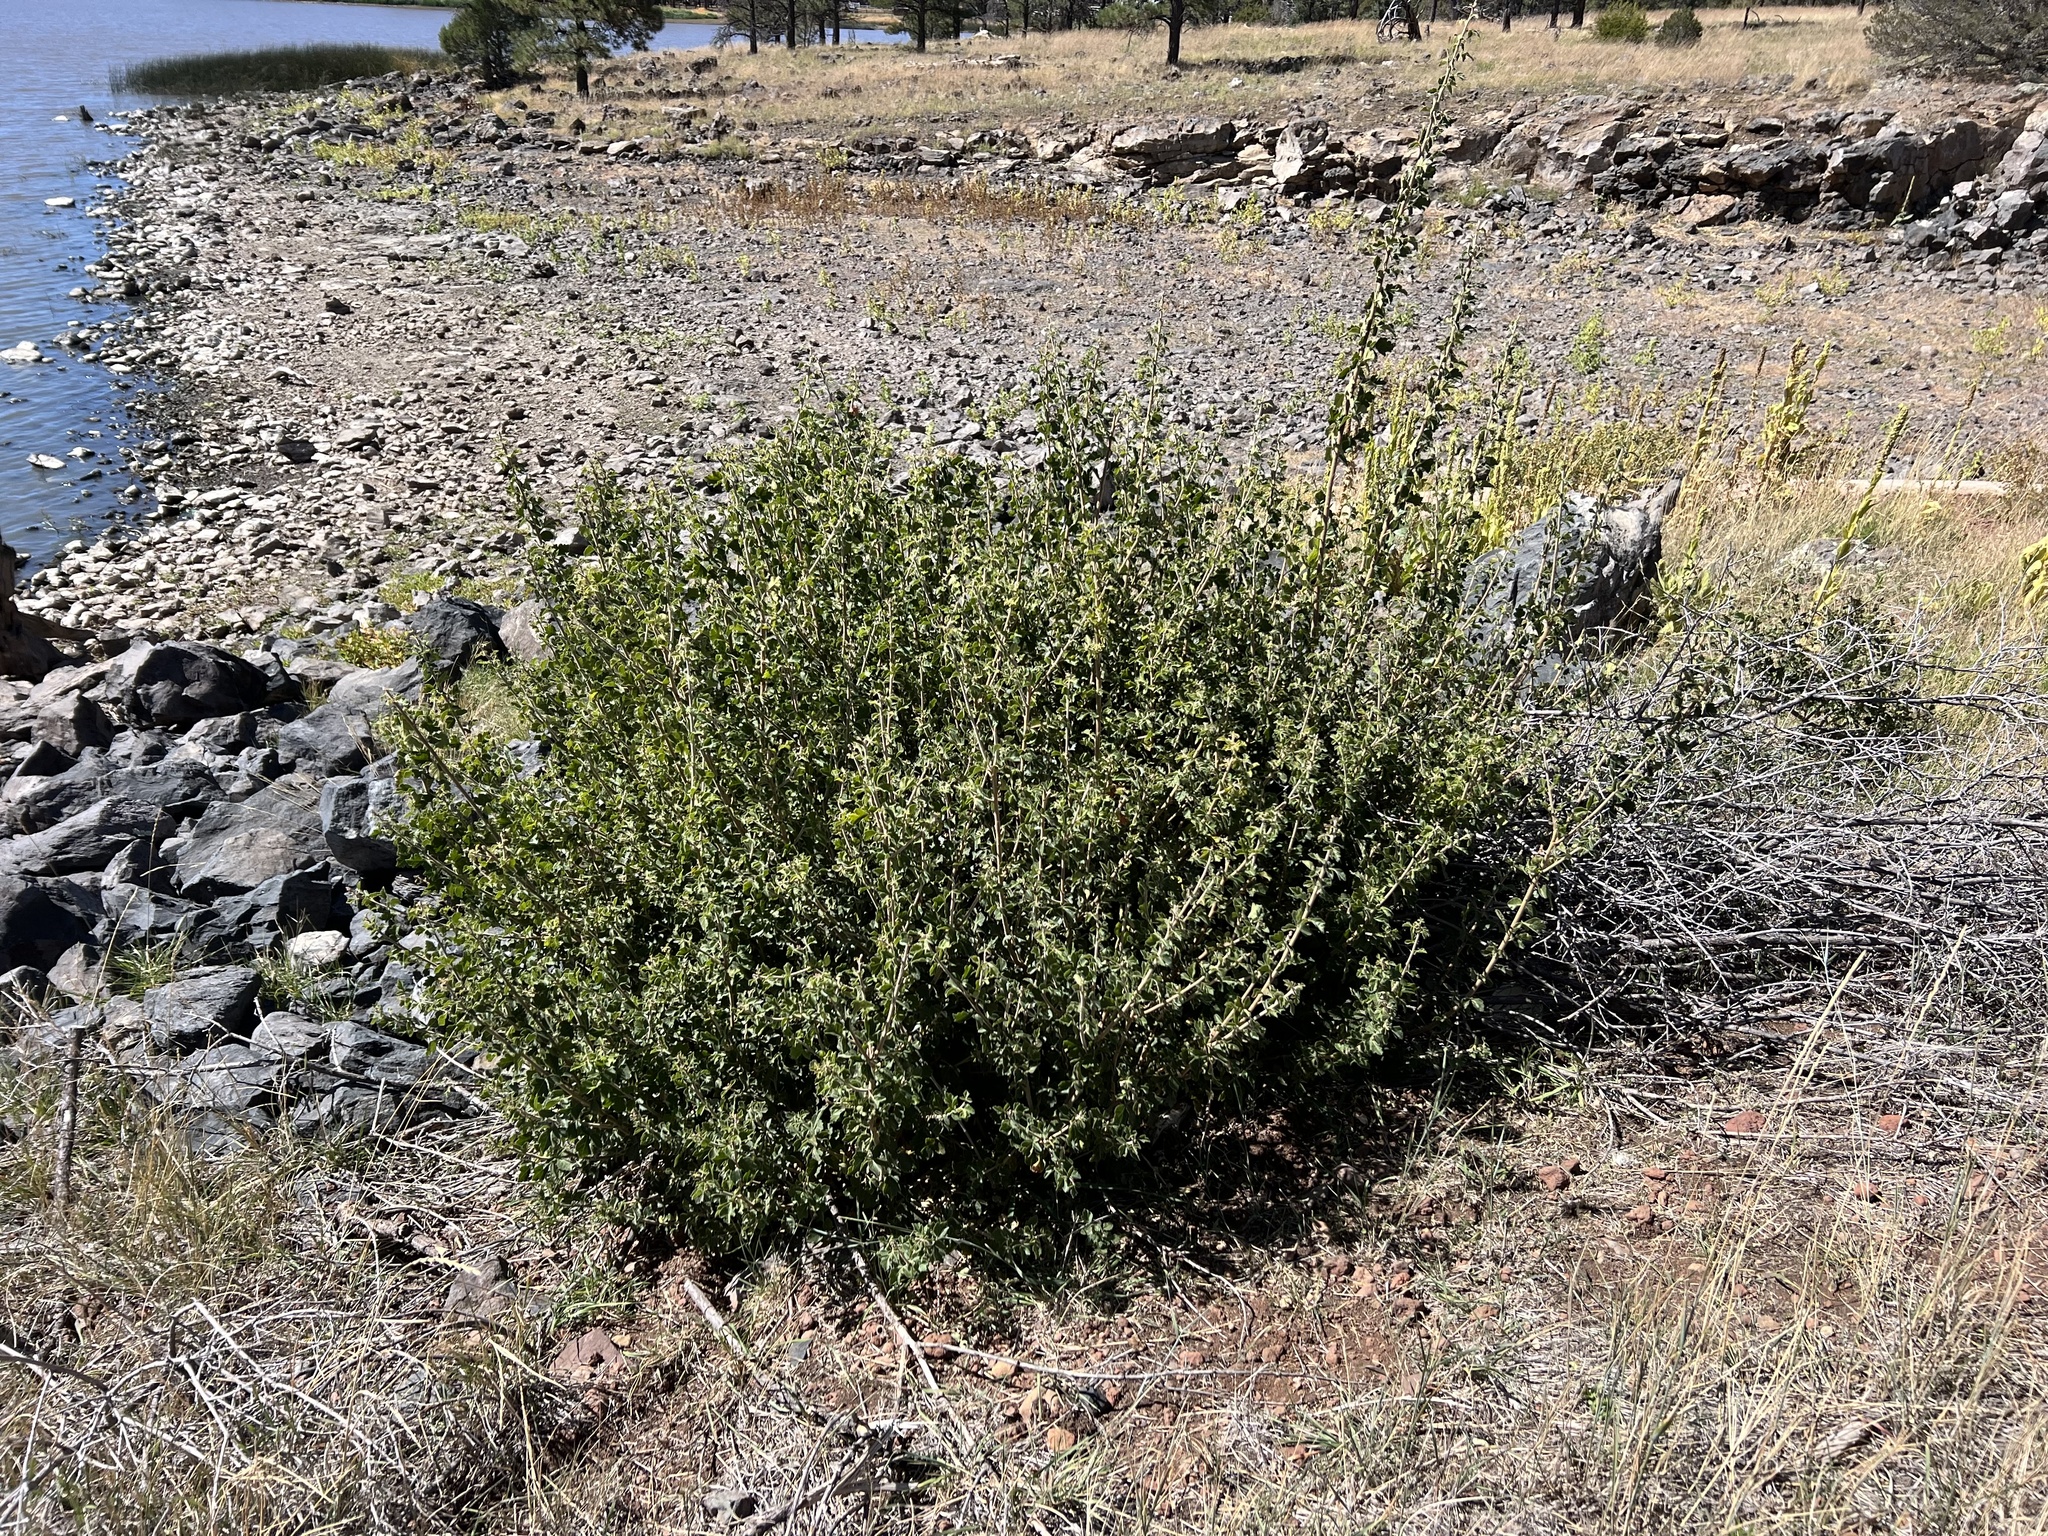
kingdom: Plantae
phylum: Tracheophyta
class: Magnoliopsida
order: Sapindales
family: Anacardiaceae
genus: Rhus
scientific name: Rhus trilobata
